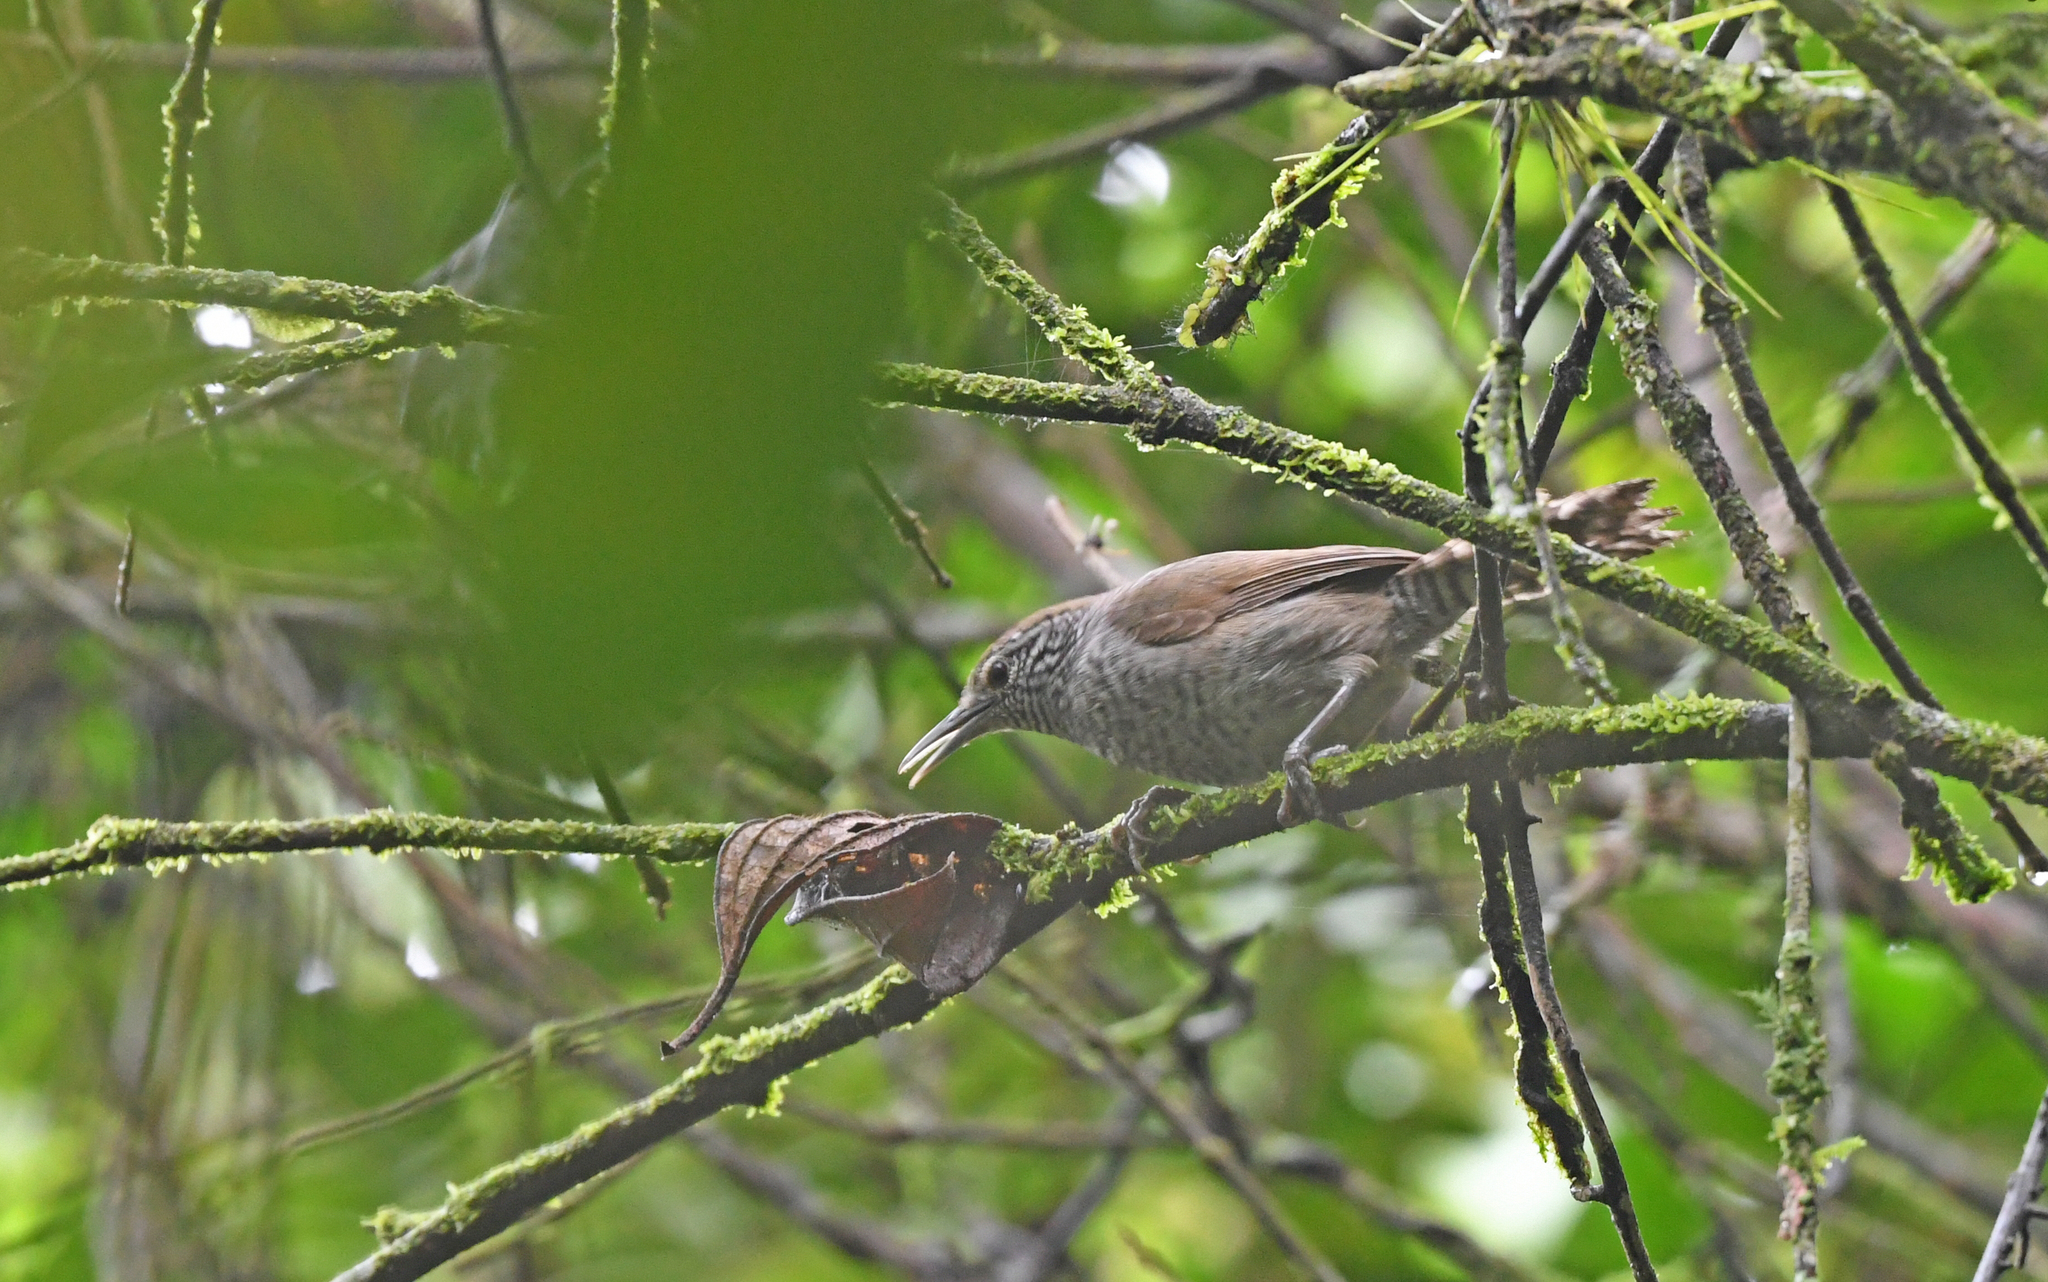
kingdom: Animalia
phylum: Chordata
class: Aves
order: Passeriformes
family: Troglodytidae
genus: Pheugopedius
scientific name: Pheugopedius sclateri
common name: Speckle-breasted wren
